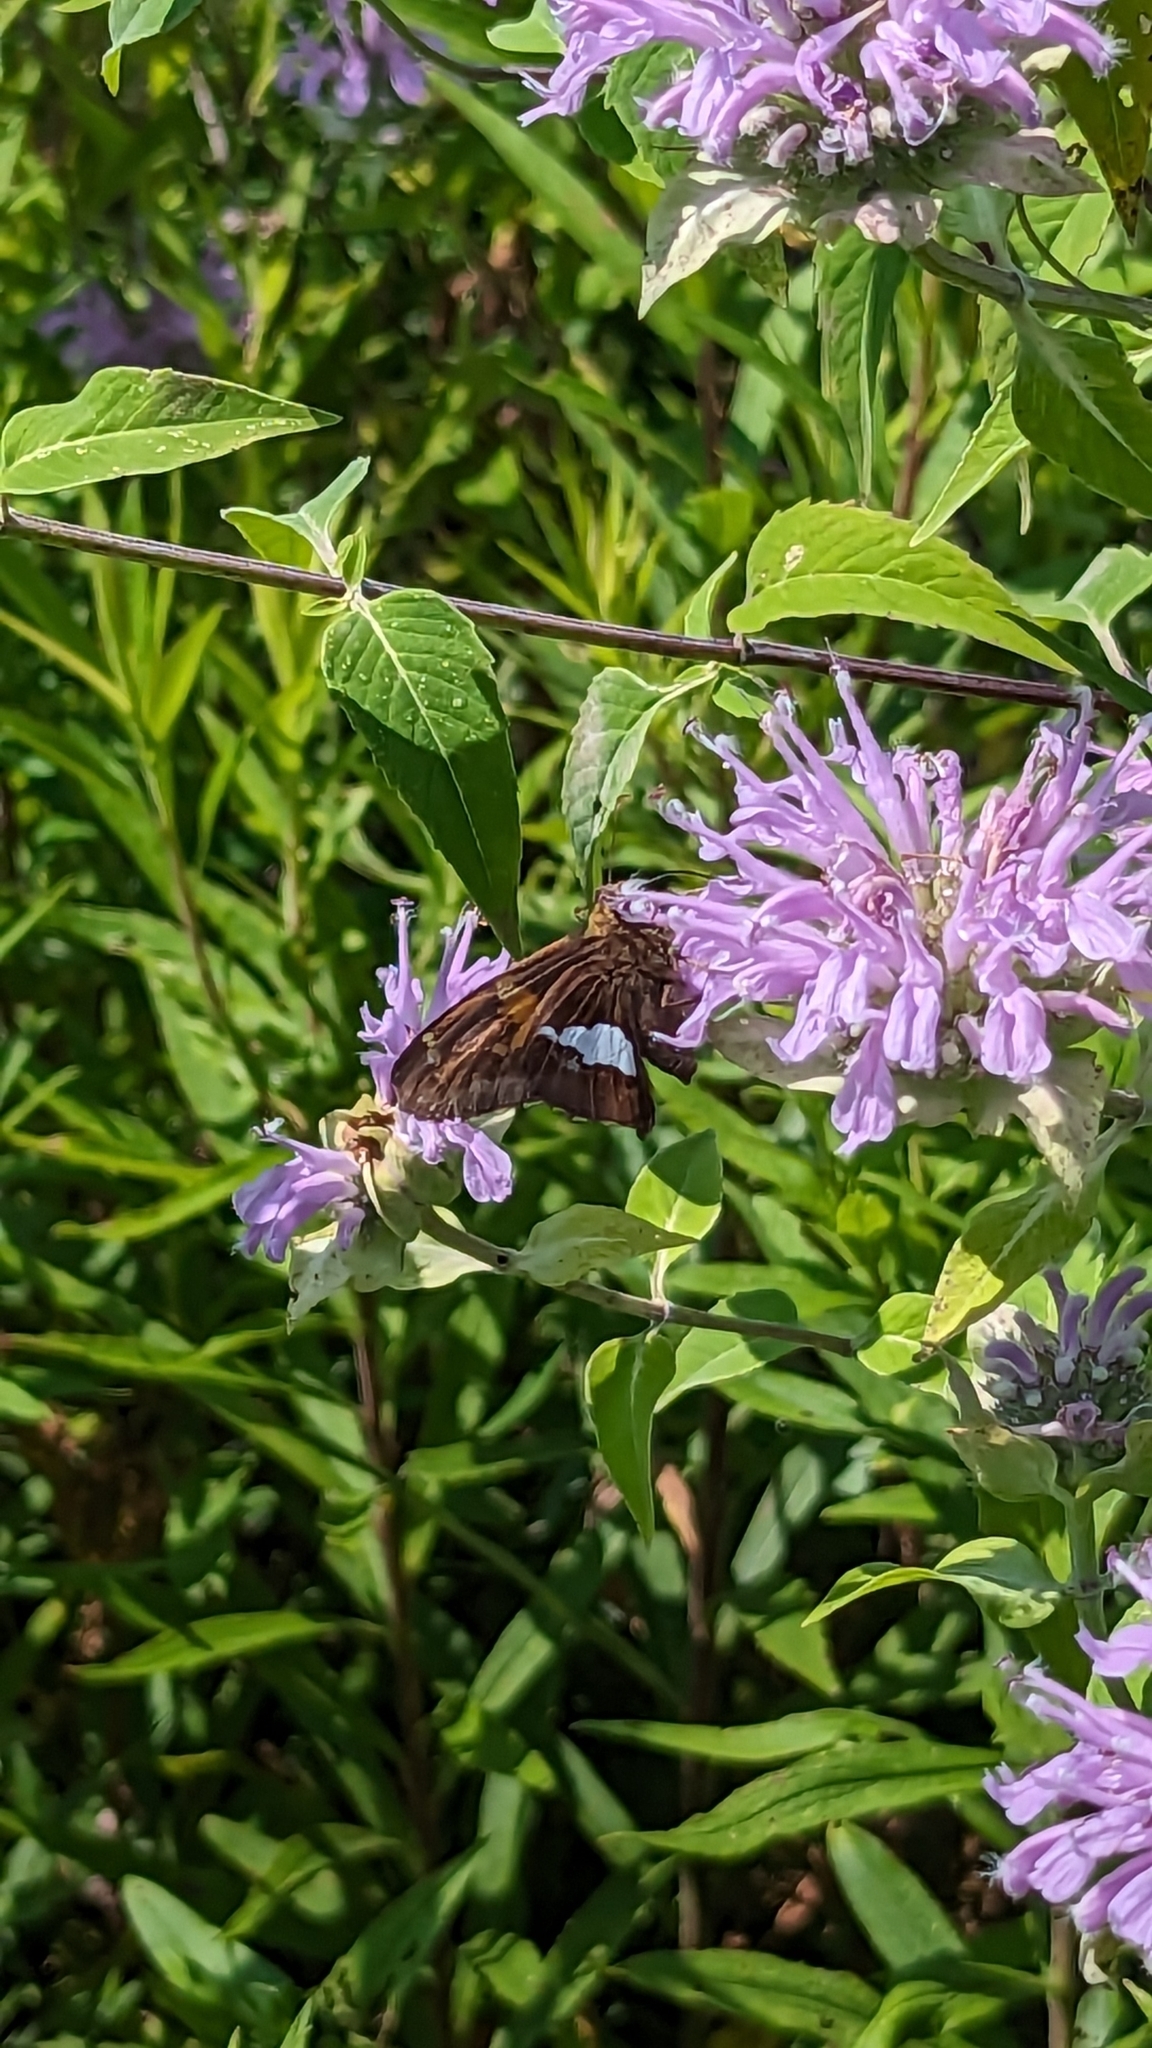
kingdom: Animalia
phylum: Arthropoda
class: Insecta
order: Lepidoptera
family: Hesperiidae
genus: Epargyreus
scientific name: Epargyreus clarus
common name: Silver-spotted skipper
